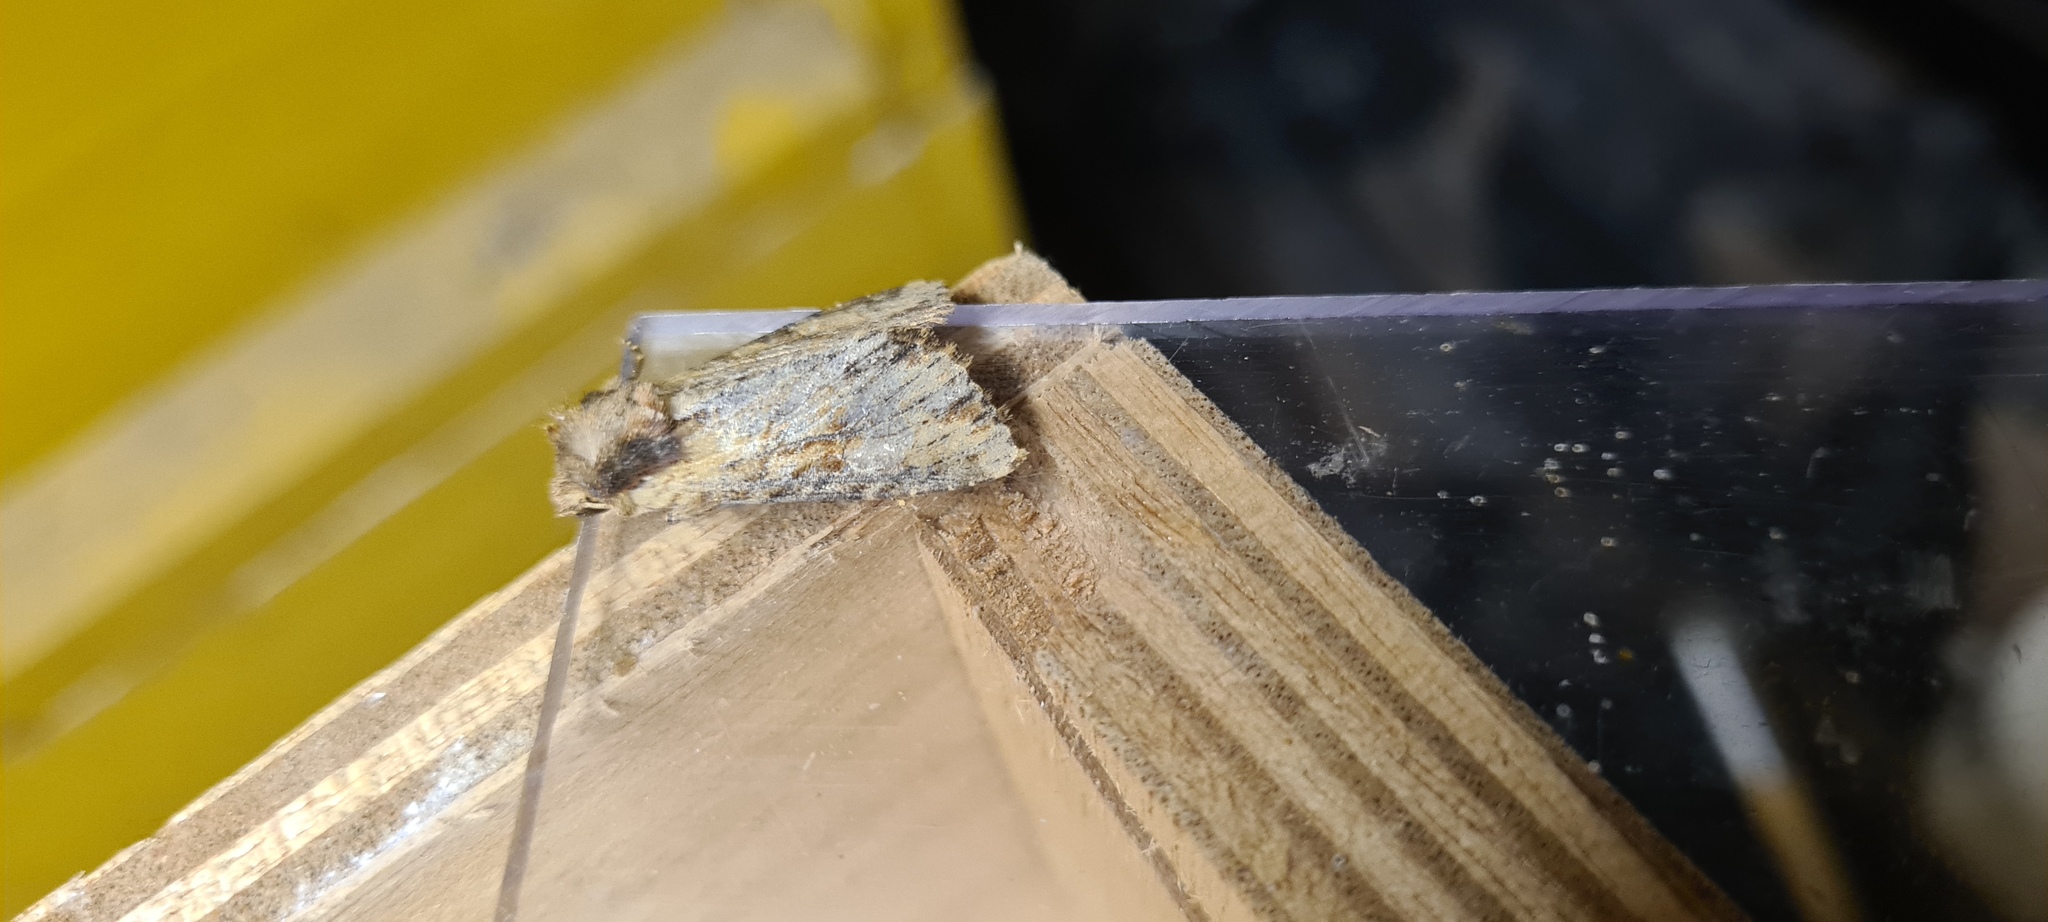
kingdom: Animalia
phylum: Arthropoda
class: Insecta
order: Lepidoptera
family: Noctuidae
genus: Apamea
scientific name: Apamea crenata
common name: Clouded-bordered brindle
